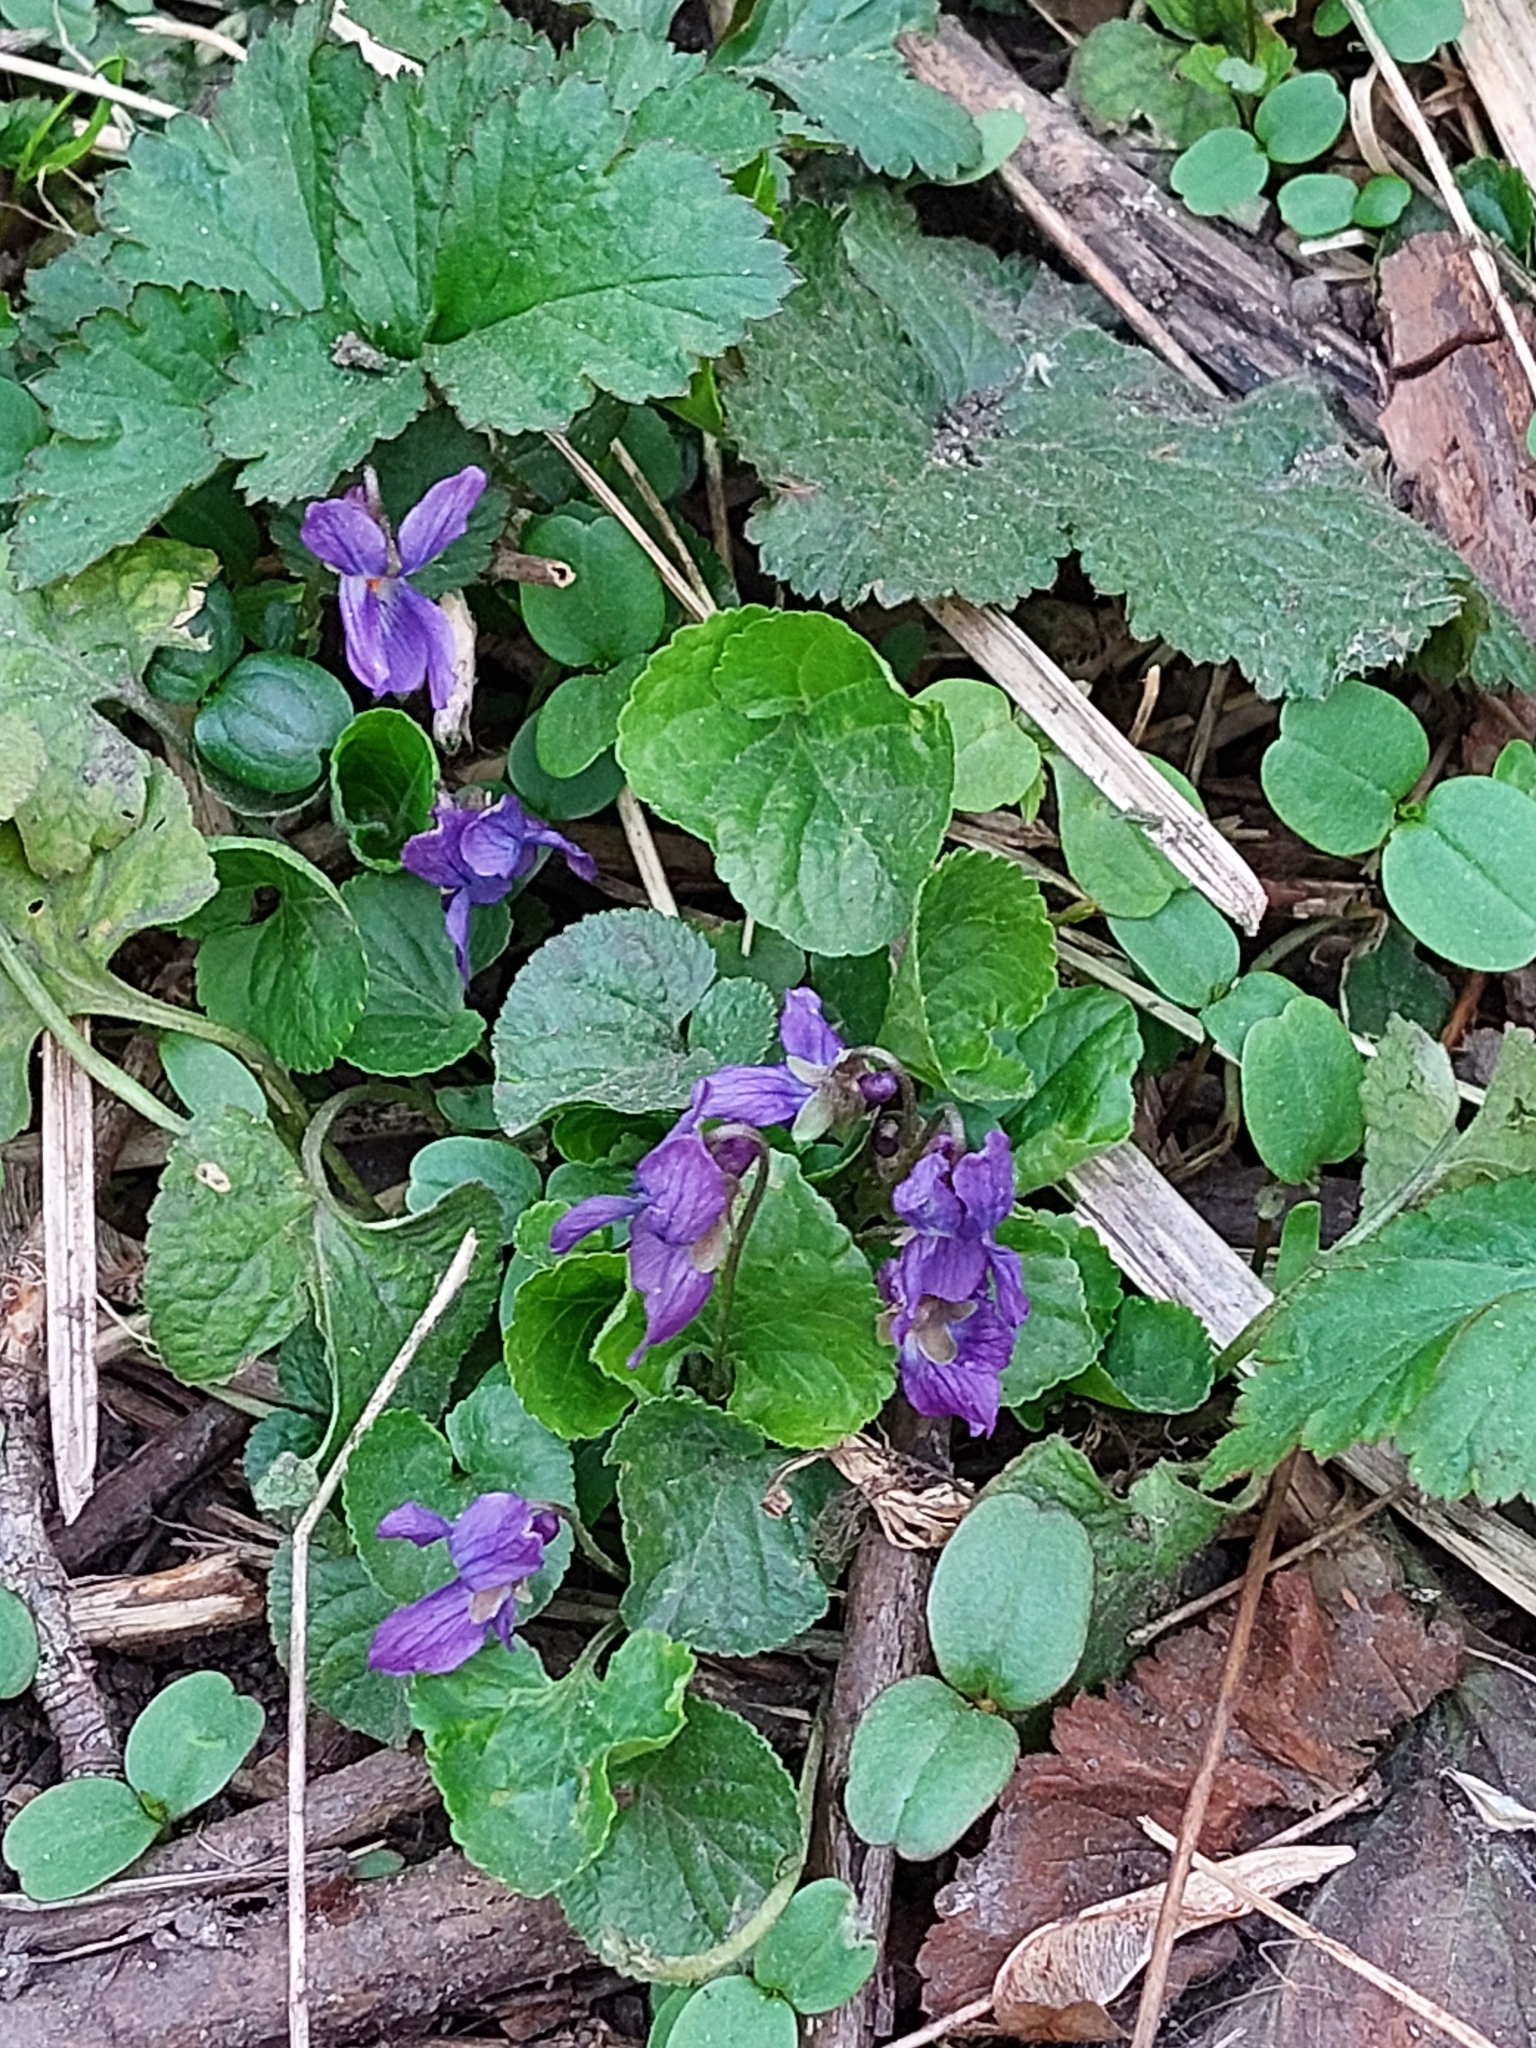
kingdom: Plantae
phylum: Tracheophyta
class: Magnoliopsida
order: Malpighiales
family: Violaceae
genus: Viola
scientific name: Viola odorata
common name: Sweet violet
